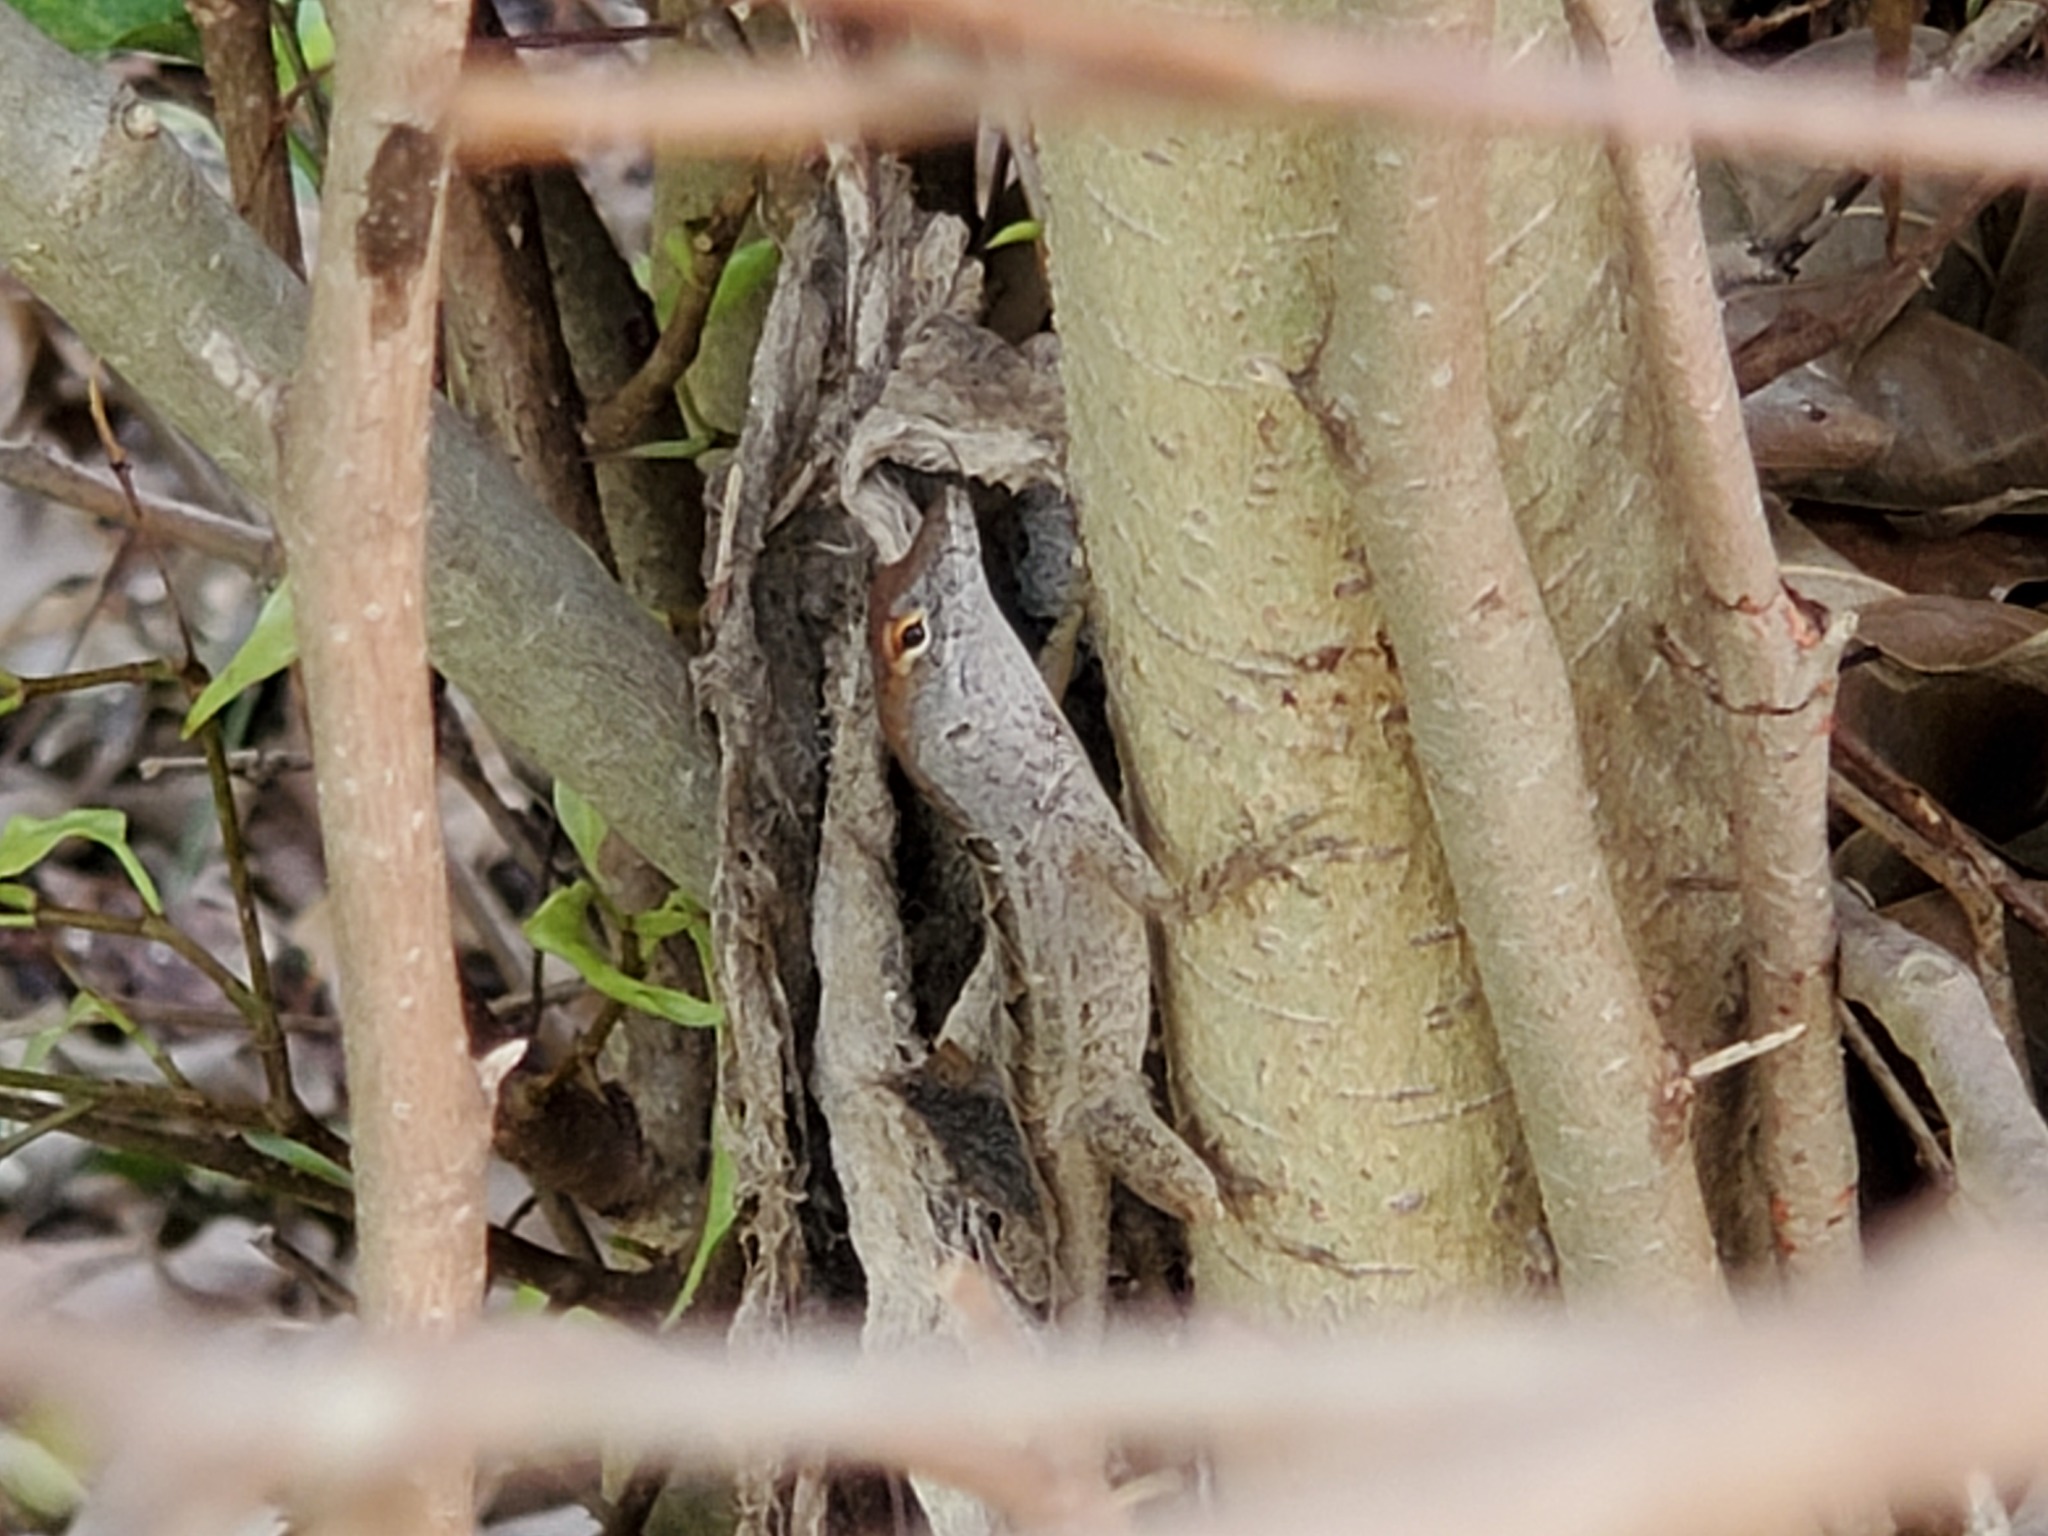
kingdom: Animalia
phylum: Chordata
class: Squamata
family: Dactyloidae
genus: Anolis
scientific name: Anolis sagrei
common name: Brown anole
